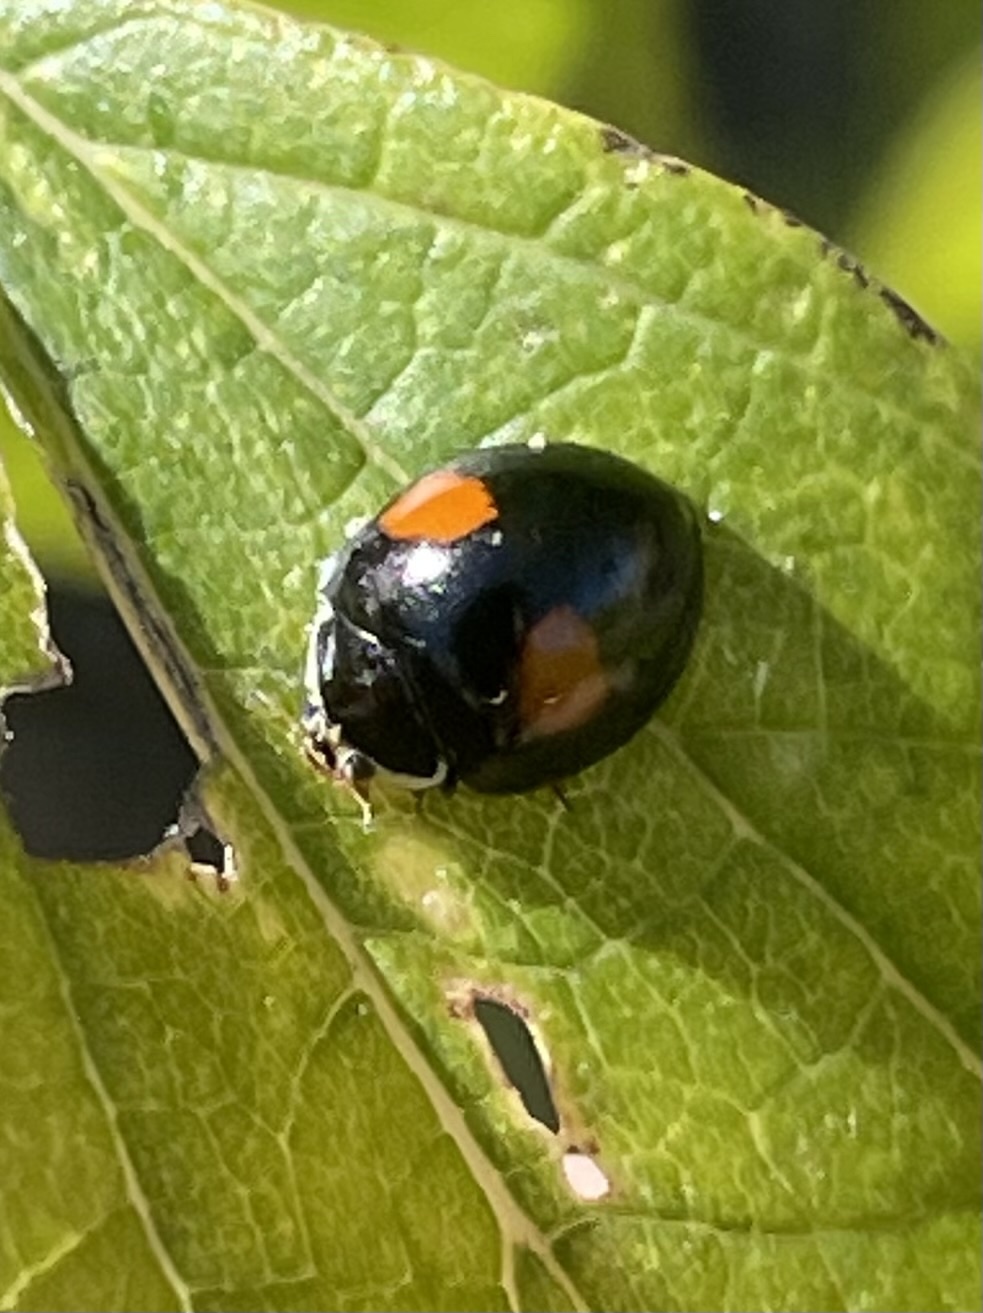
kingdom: Animalia
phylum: Arthropoda
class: Insecta
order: Coleoptera
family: Coccinellidae
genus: Olla
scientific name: Olla v-nigrum
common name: Ashy gray lady beetle
